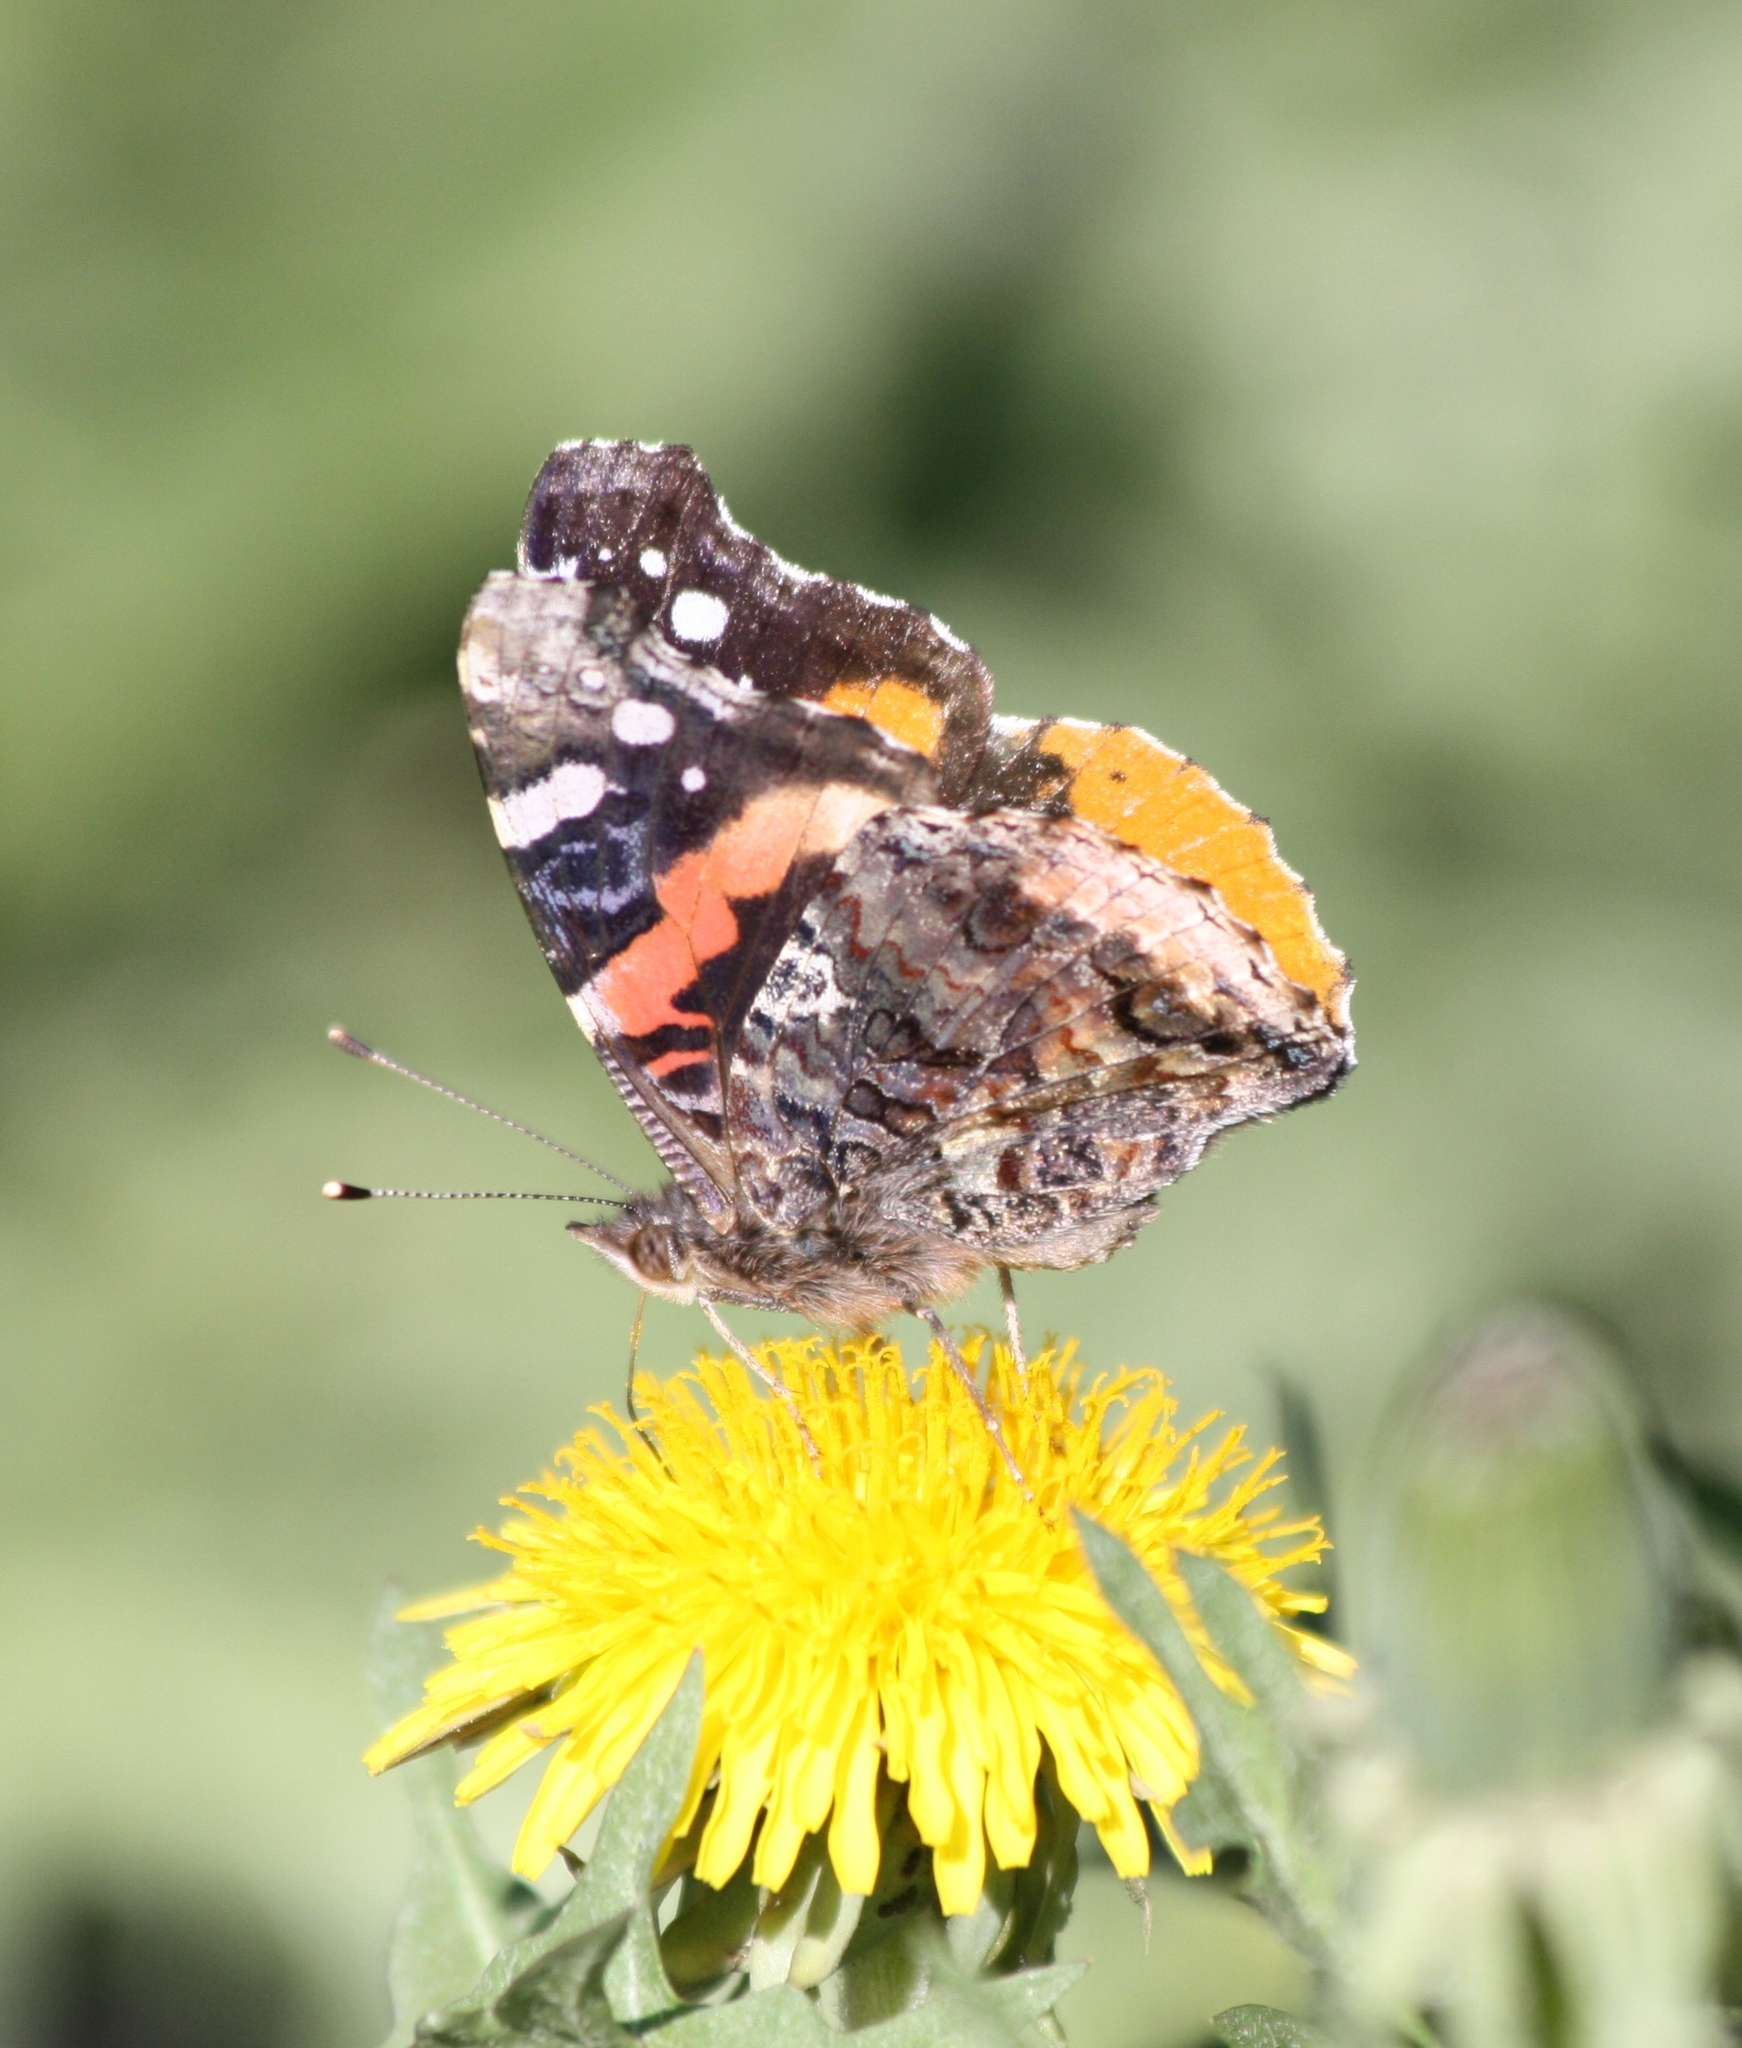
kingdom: Animalia
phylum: Arthropoda
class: Insecta
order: Lepidoptera
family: Nymphalidae
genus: Vanessa
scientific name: Vanessa atalanta
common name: Red admiral
